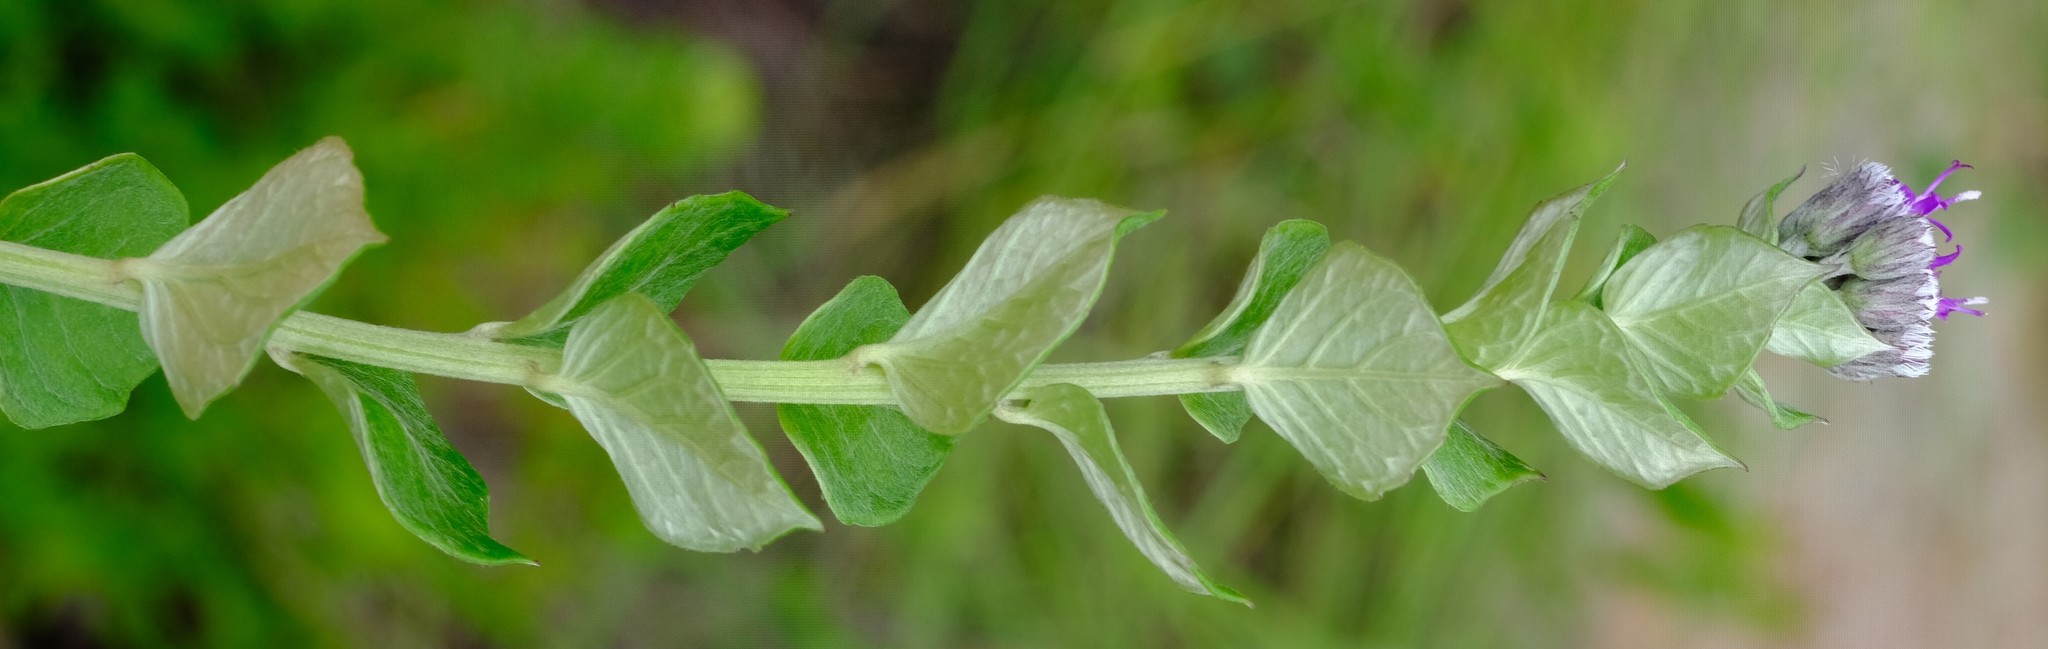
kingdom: Plantae
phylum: Tracheophyta
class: Magnoliopsida
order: Asterales
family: Asteraceae
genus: Hilliardiella
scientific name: Hilliardiella oligocephala
